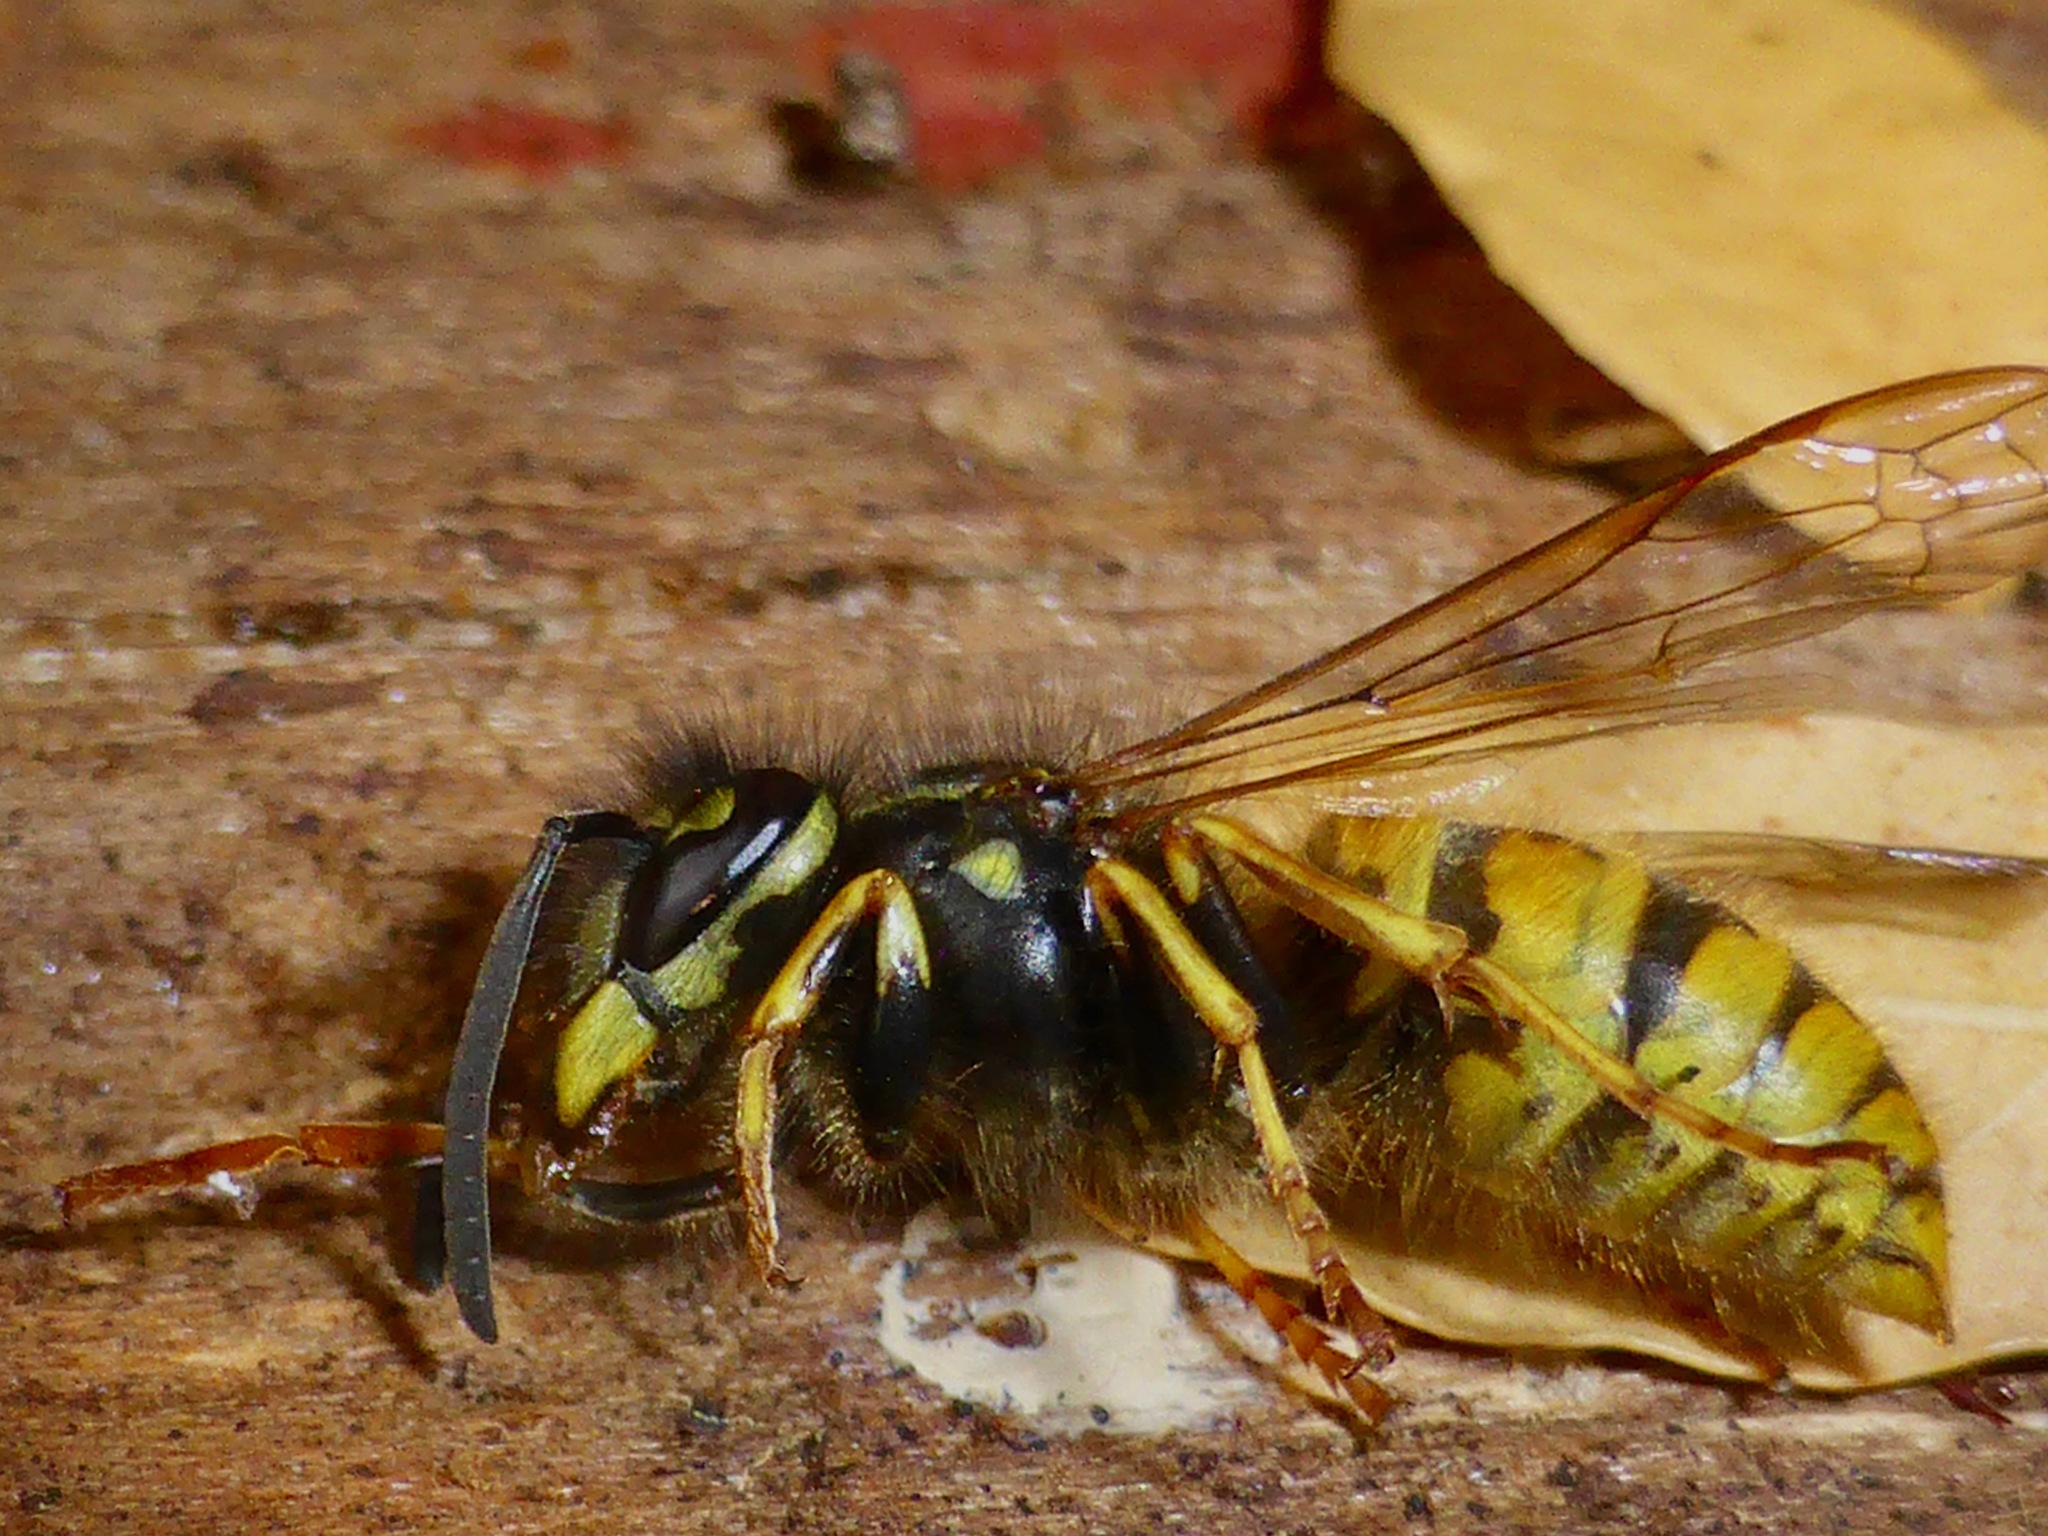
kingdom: Animalia
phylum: Arthropoda
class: Insecta
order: Hymenoptera
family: Vespidae
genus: Vespula
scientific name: Vespula vulgaris
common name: Common wasp
